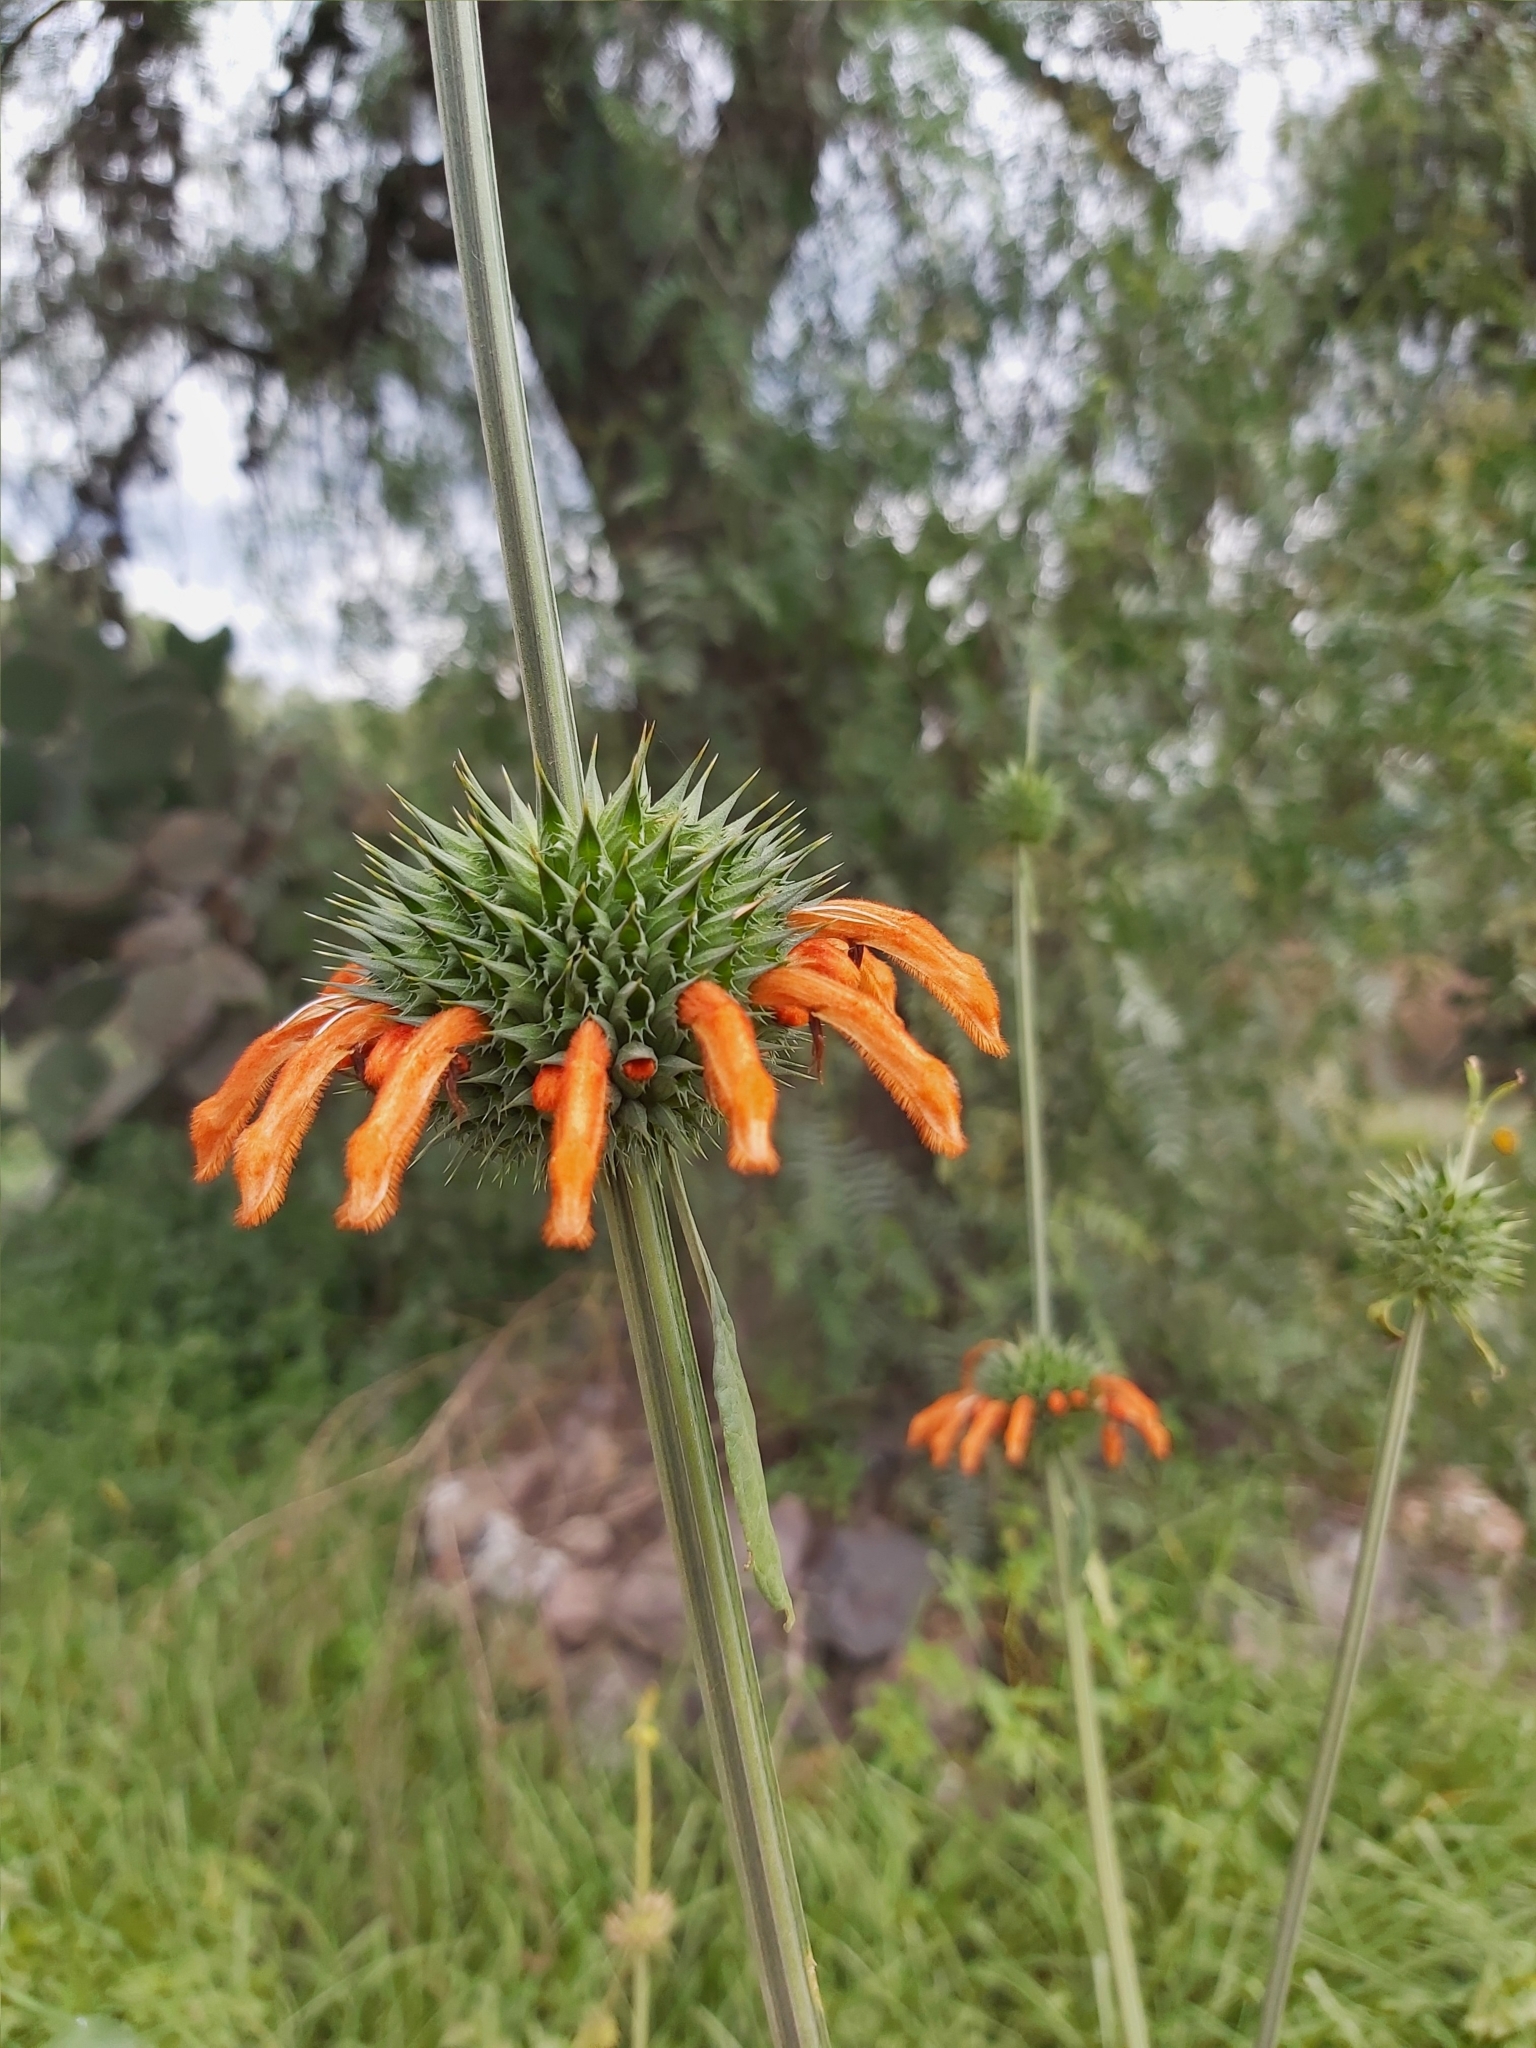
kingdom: Plantae
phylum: Tracheophyta
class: Magnoliopsida
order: Lamiales
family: Lamiaceae
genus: Leonotis
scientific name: Leonotis nepetifolia
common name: Christmas candlestick
